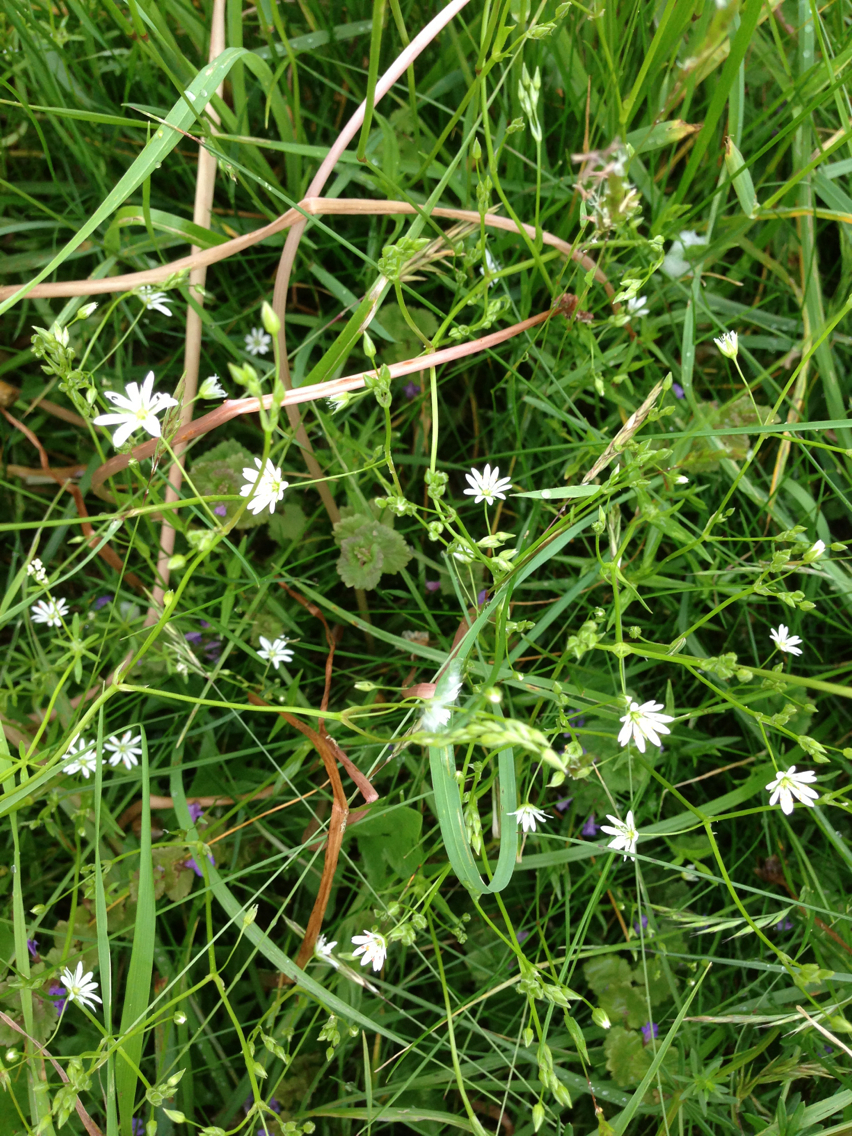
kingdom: Plantae
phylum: Tracheophyta
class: Magnoliopsida
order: Caryophyllales
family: Caryophyllaceae
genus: Stellaria
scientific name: Stellaria graminea
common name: Grass-like starwort
